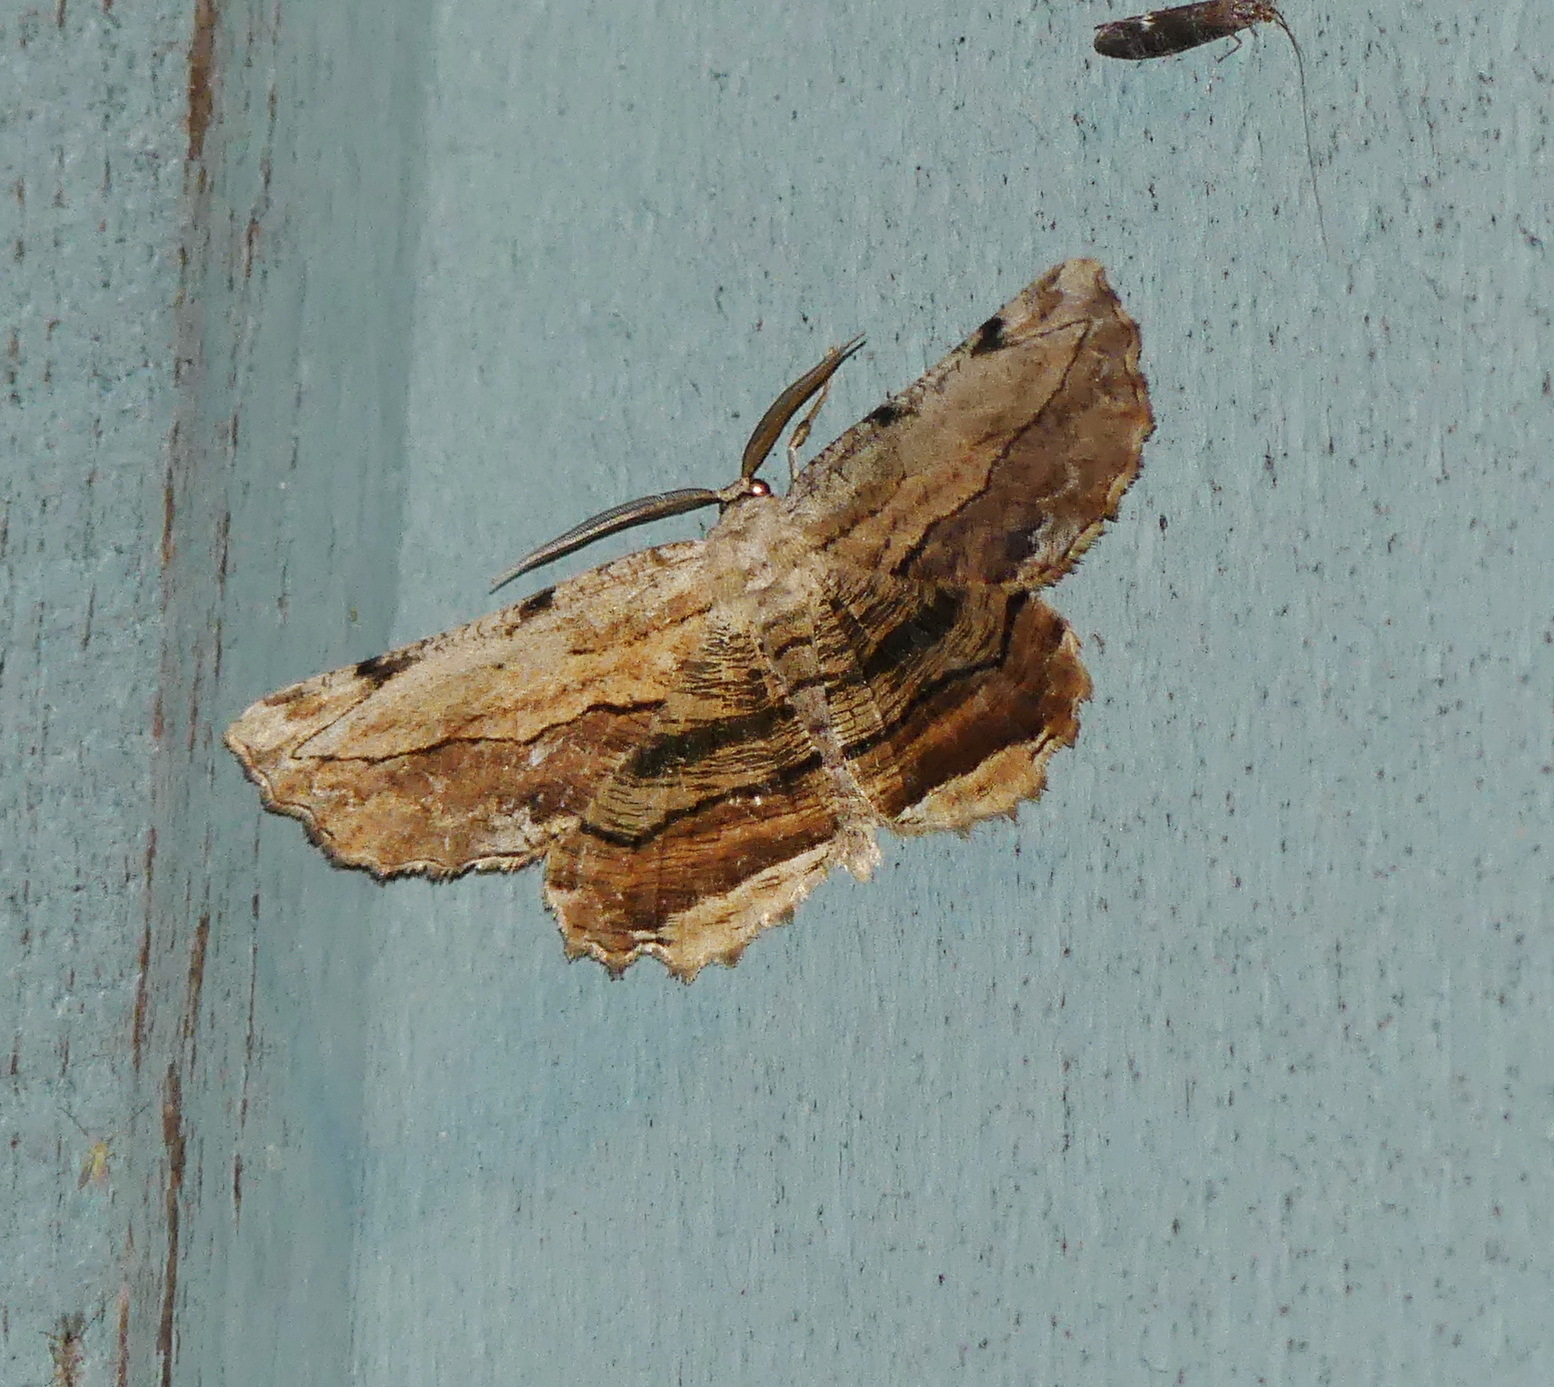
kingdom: Animalia
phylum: Arthropoda
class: Insecta
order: Lepidoptera
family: Geometridae
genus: Lytrosis
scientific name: Lytrosis unitaria
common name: Common lytrosis
